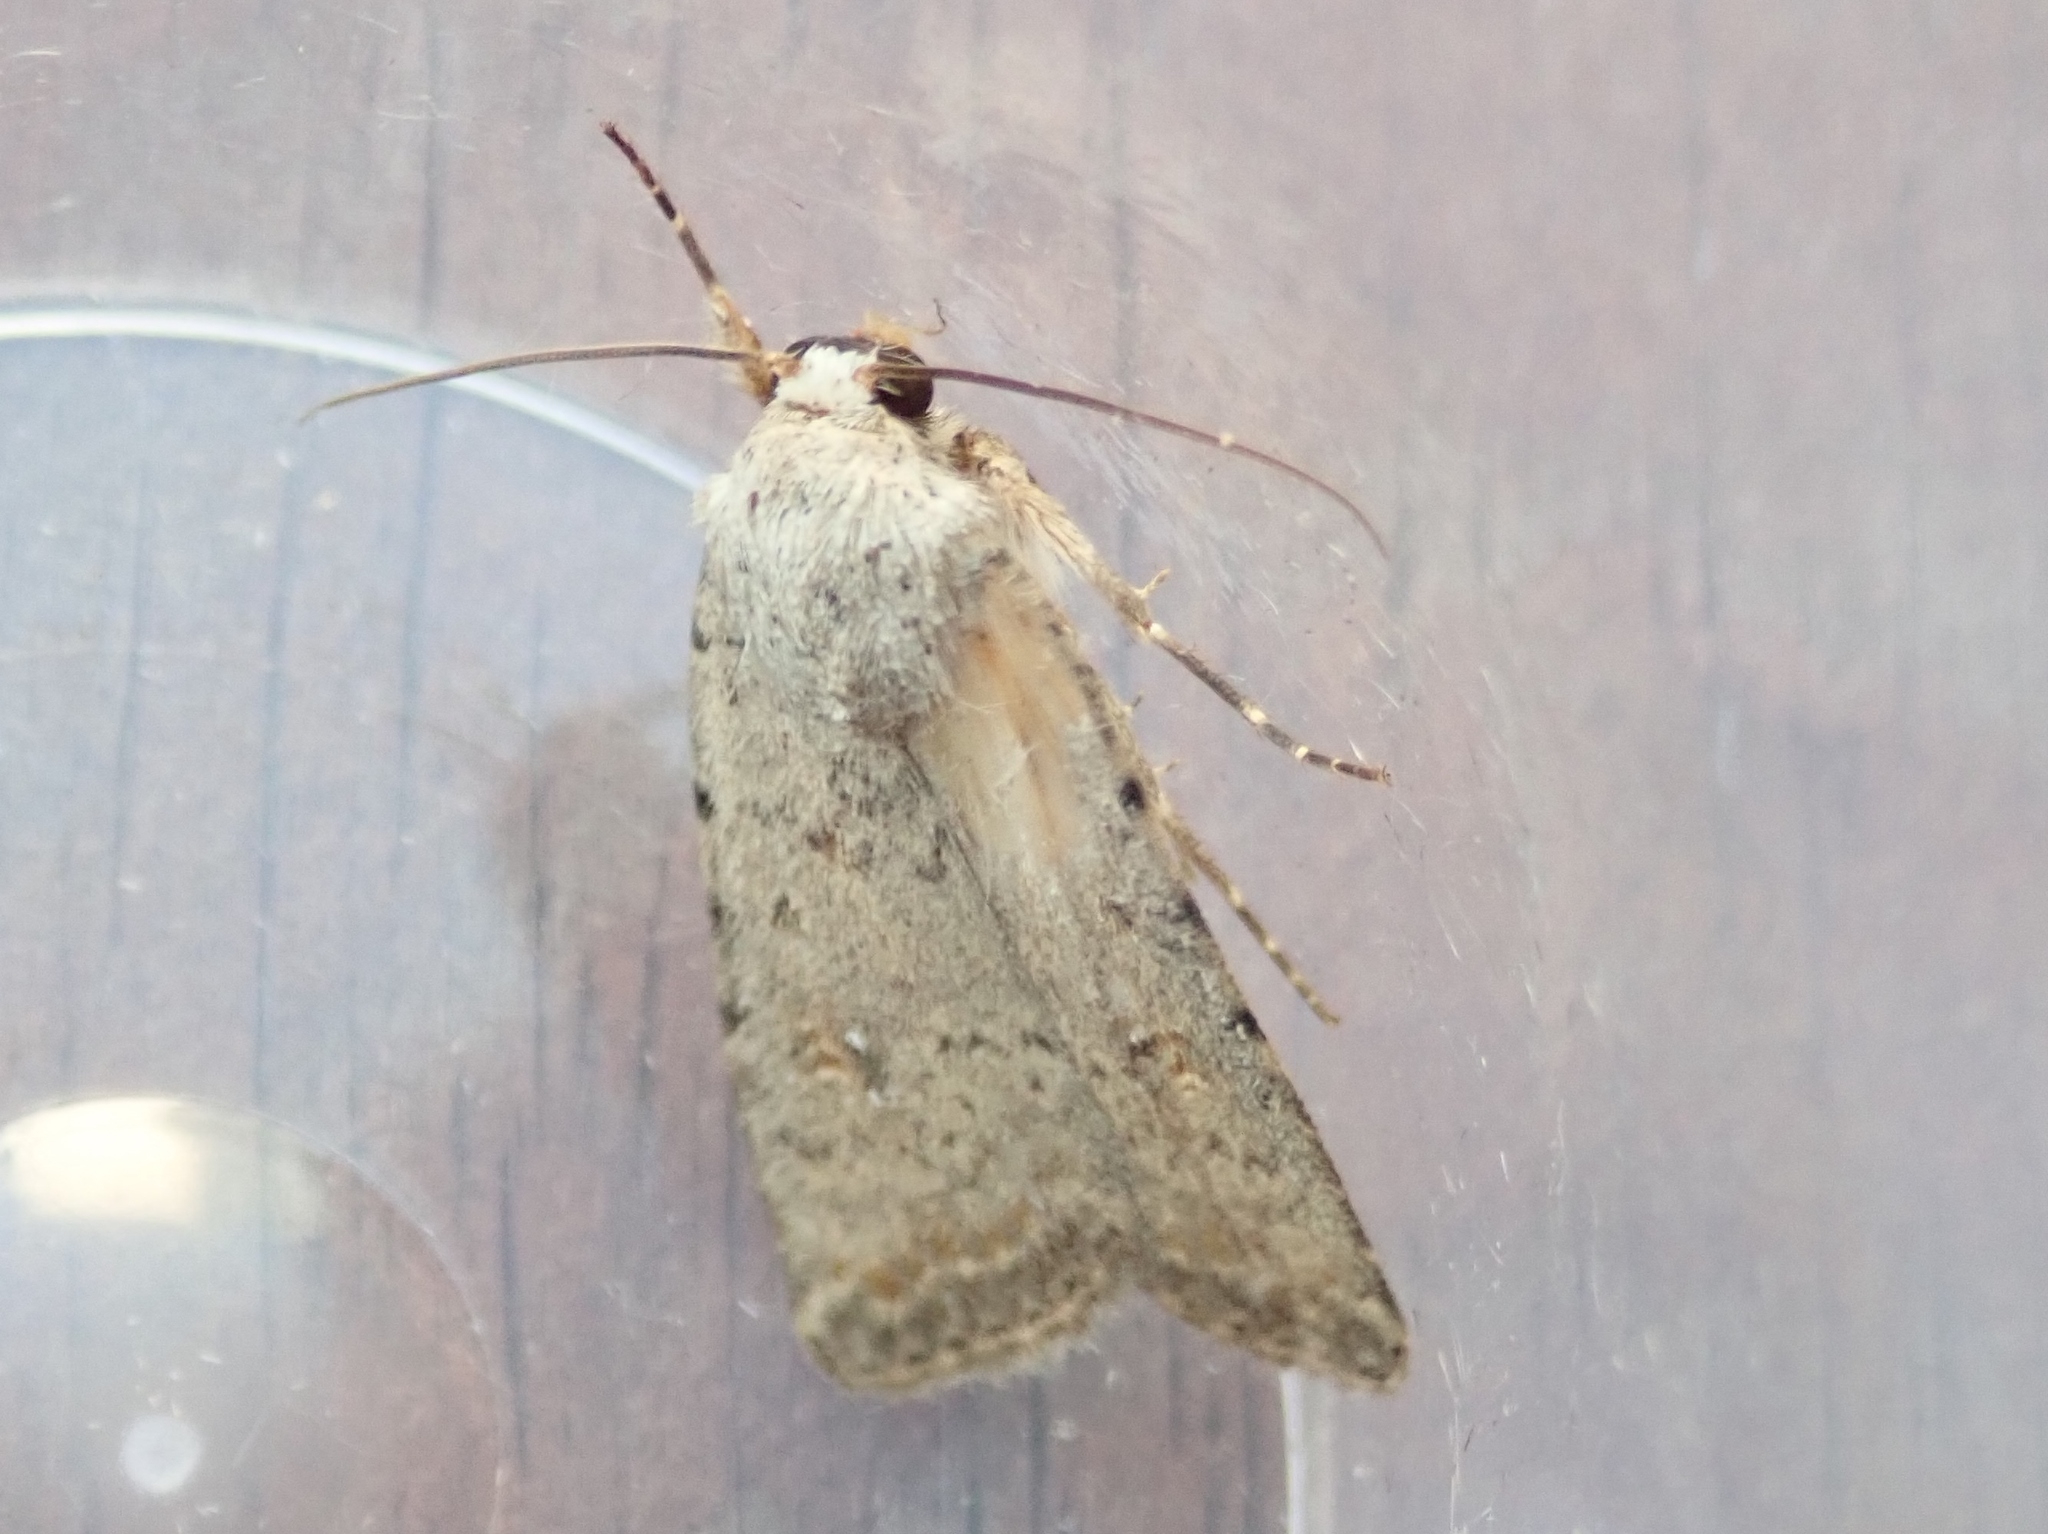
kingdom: Animalia
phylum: Arthropoda
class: Insecta
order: Lepidoptera
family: Noctuidae
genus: Caradrina
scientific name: Caradrina clavipalpis
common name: Pale mottled willow
